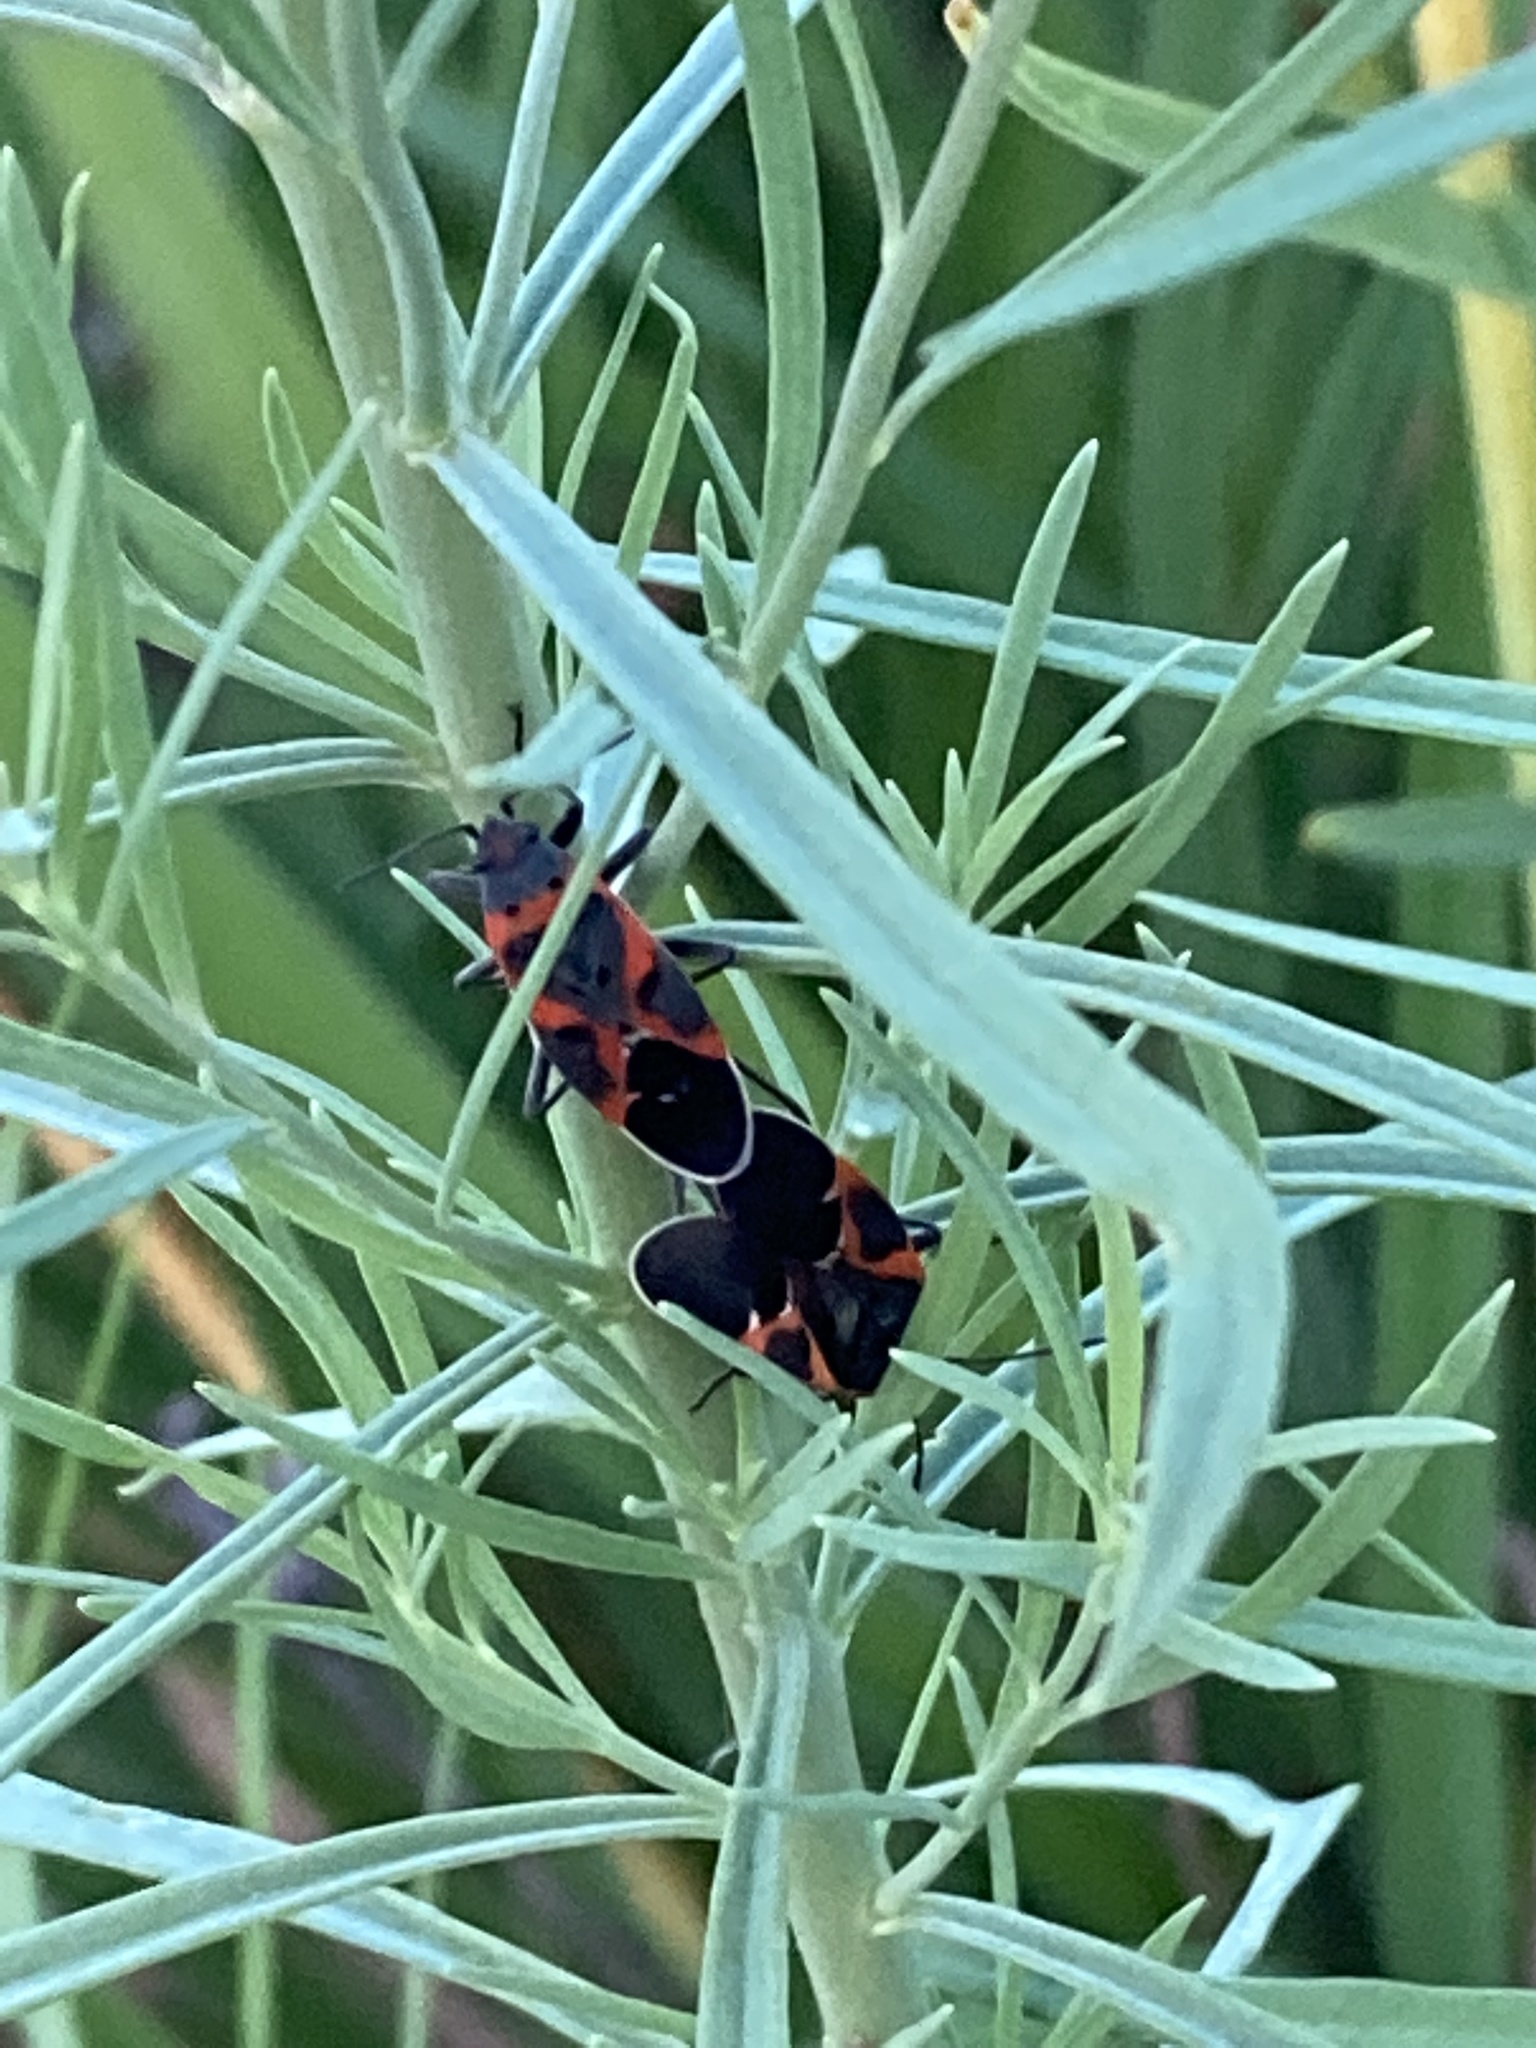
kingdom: Animalia
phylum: Arthropoda
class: Insecta
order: Hemiptera
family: Lygaeidae
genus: Lygaeus
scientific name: Lygaeus kalmii
